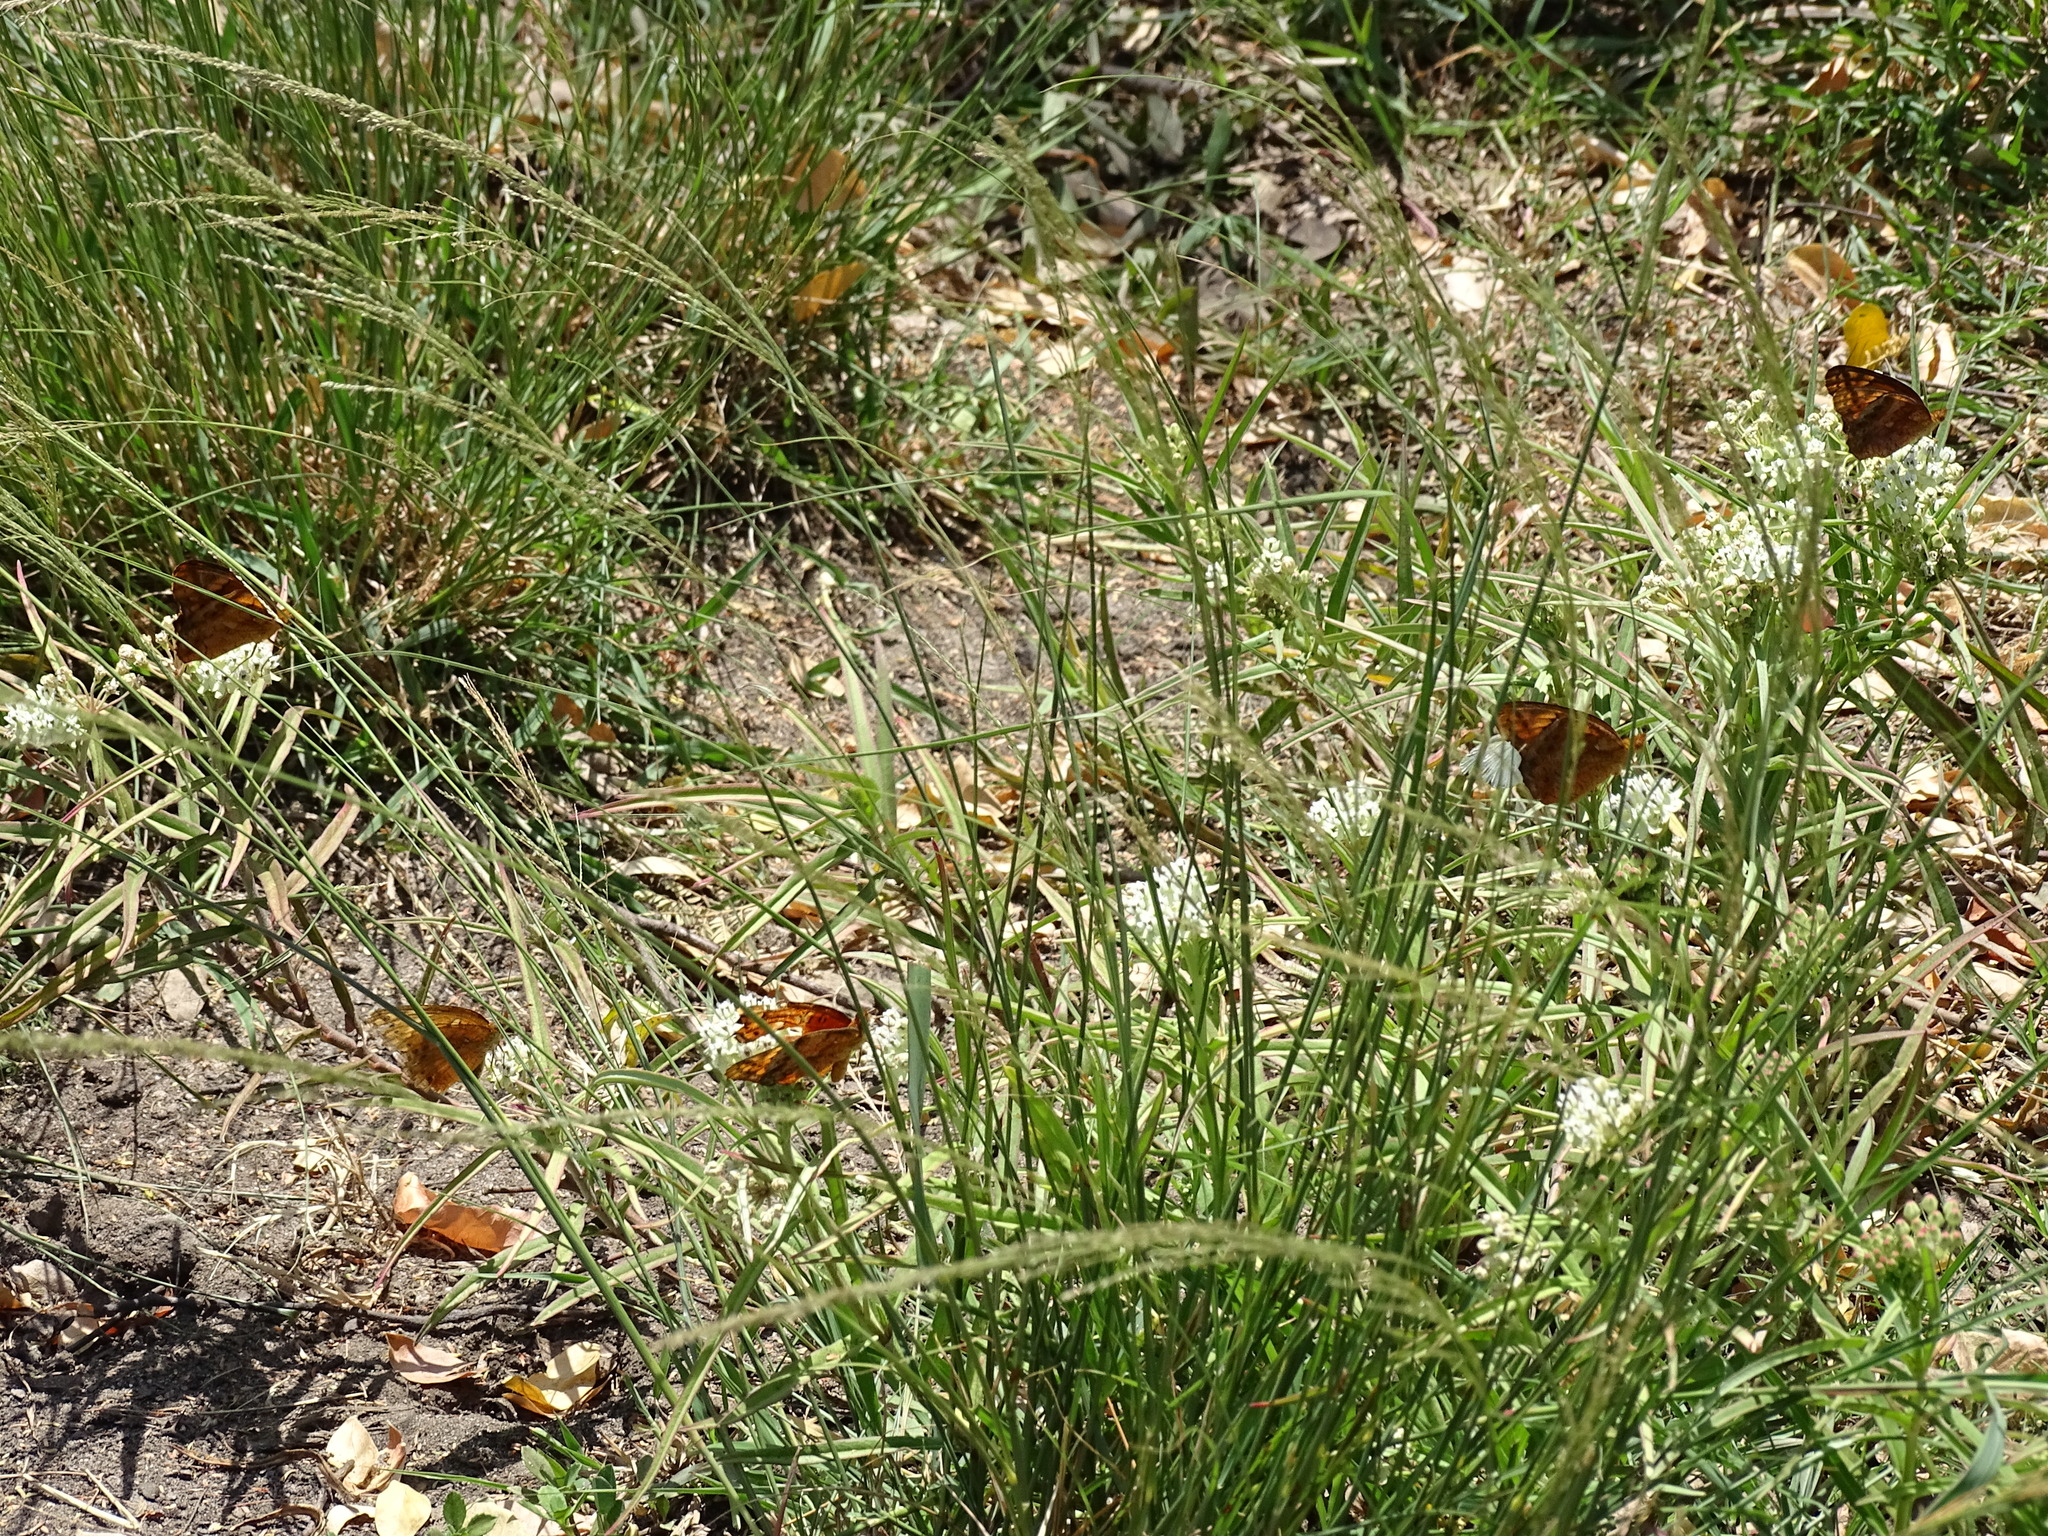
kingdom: Animalia
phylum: Arthropoda
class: Insecta
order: Lepidoptera
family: Nymphalidae
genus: Euptoieta
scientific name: Euptoieta hegesia
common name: Mexican fritillary
